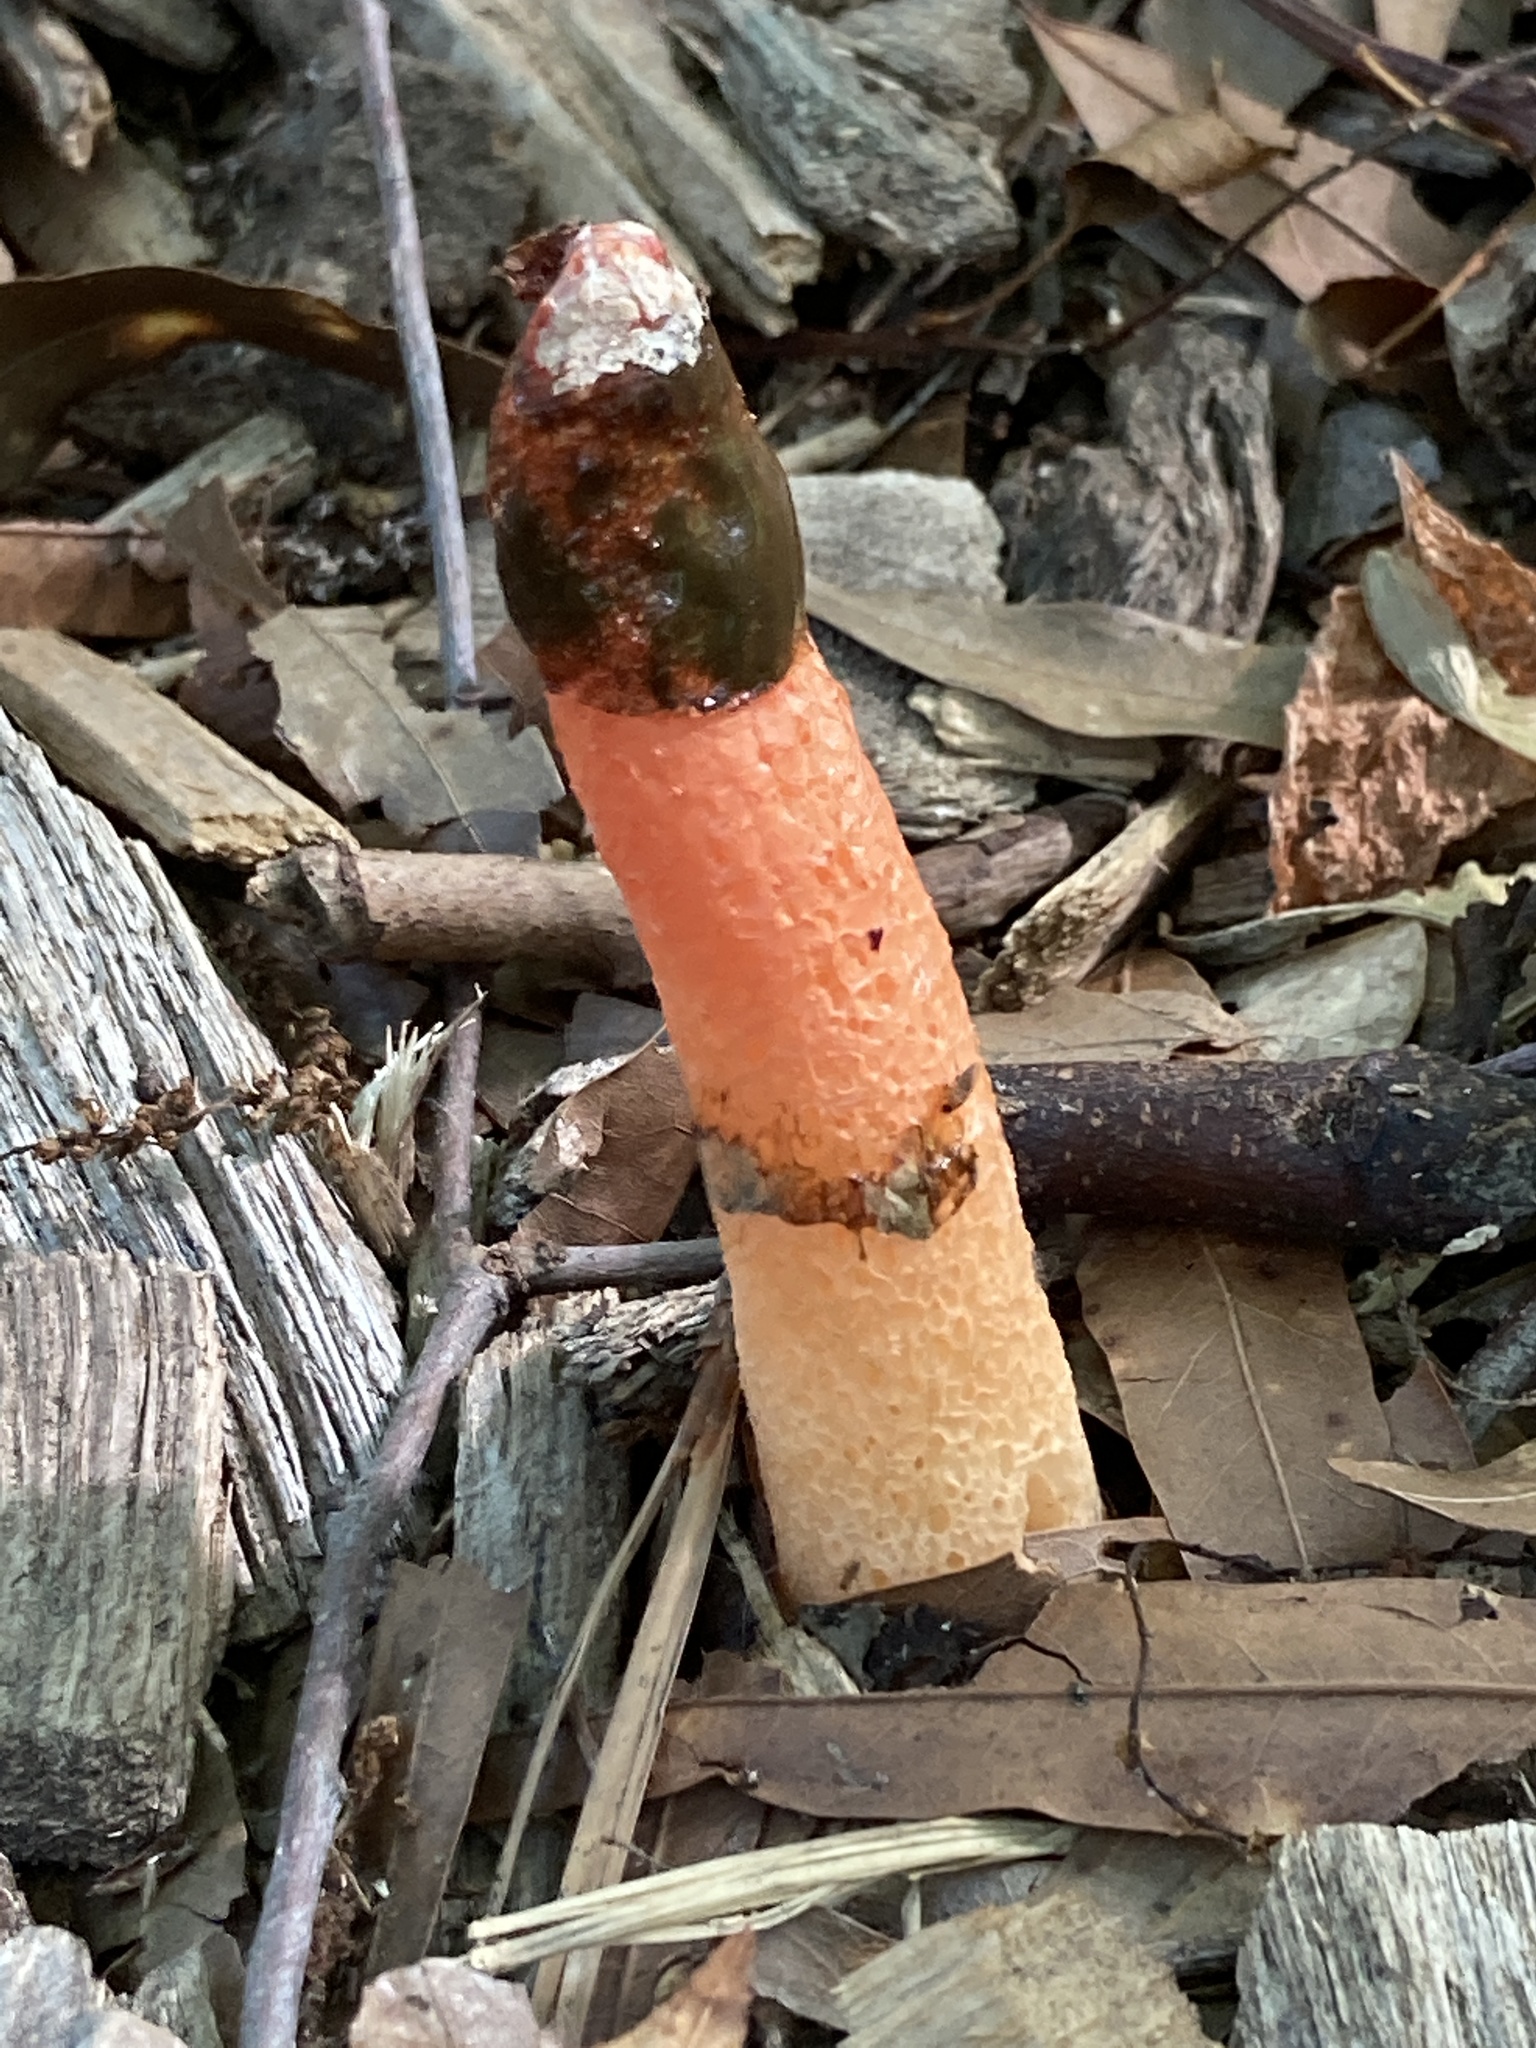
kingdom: Fungi
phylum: Basidiomycota
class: Agaricomycetes
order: Phallales
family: Phallaceae
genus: Phallus
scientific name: Phallus rugulosus
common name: Wrinkly stinkhorn
